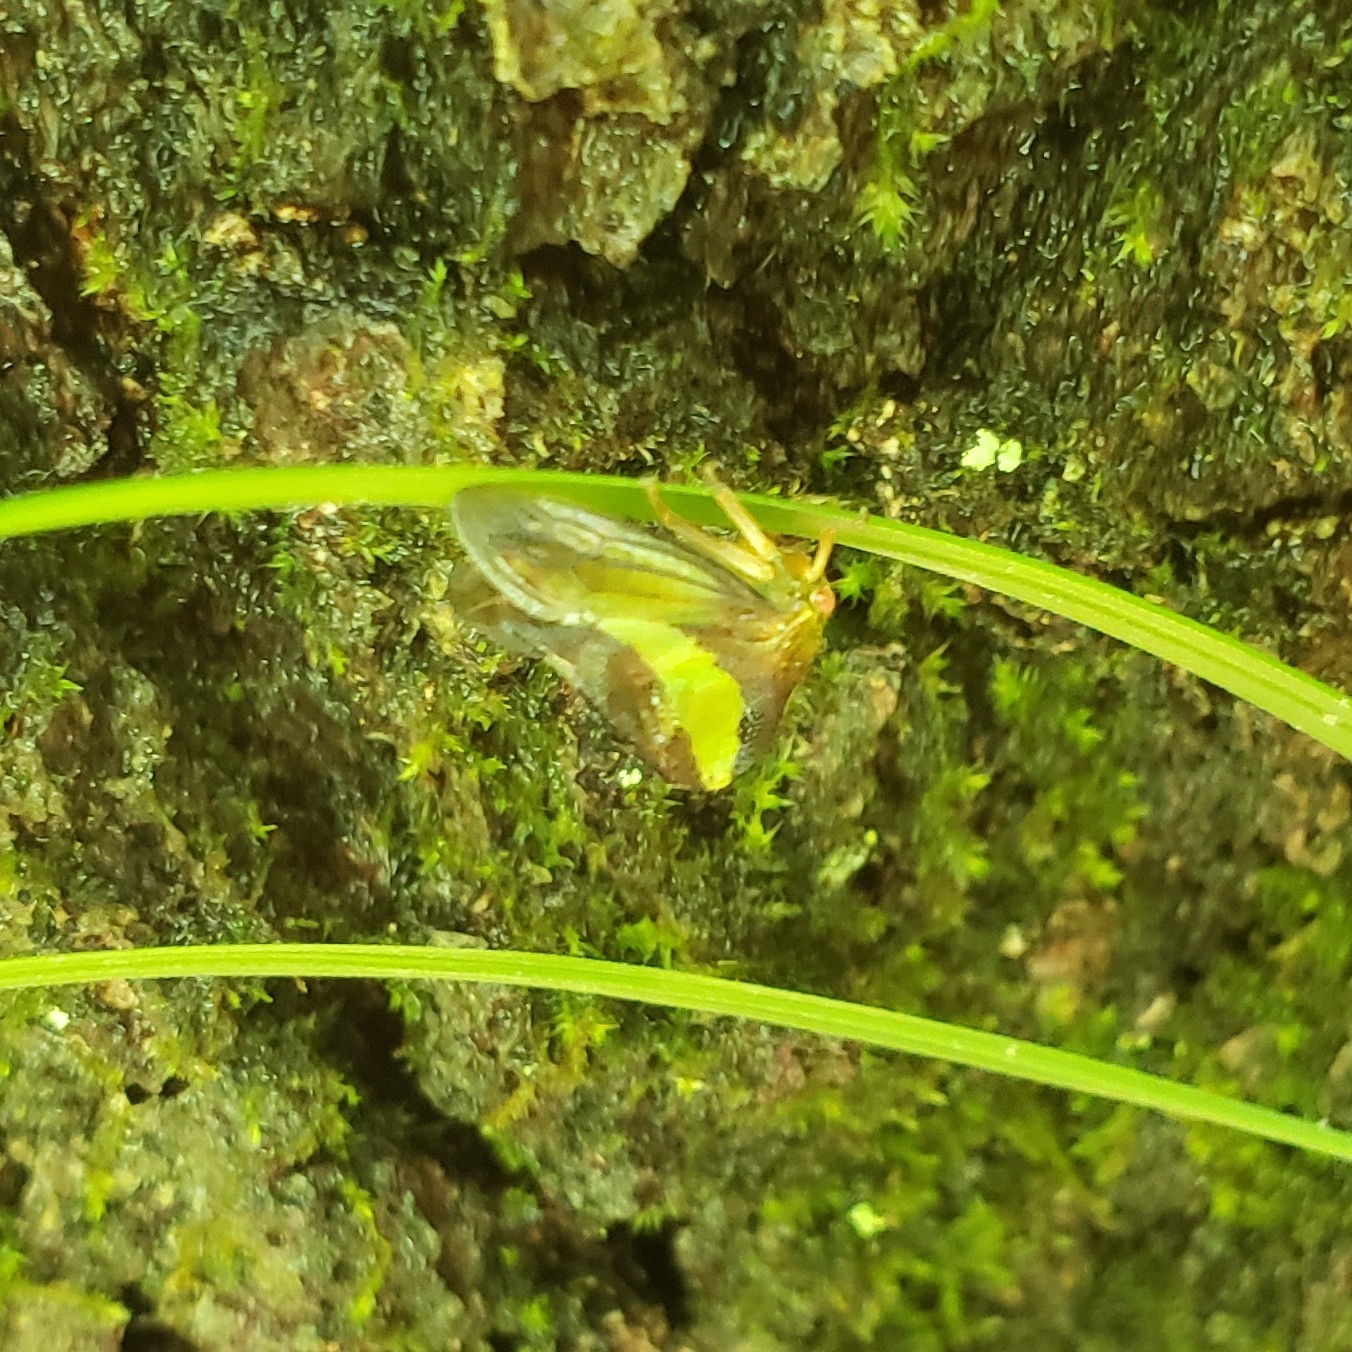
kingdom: Animalia
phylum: Arthropoda
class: Insecta
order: Hemiptera
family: Membracidae
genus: Smilia
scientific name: Smilia camelus
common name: Camel treehopper
